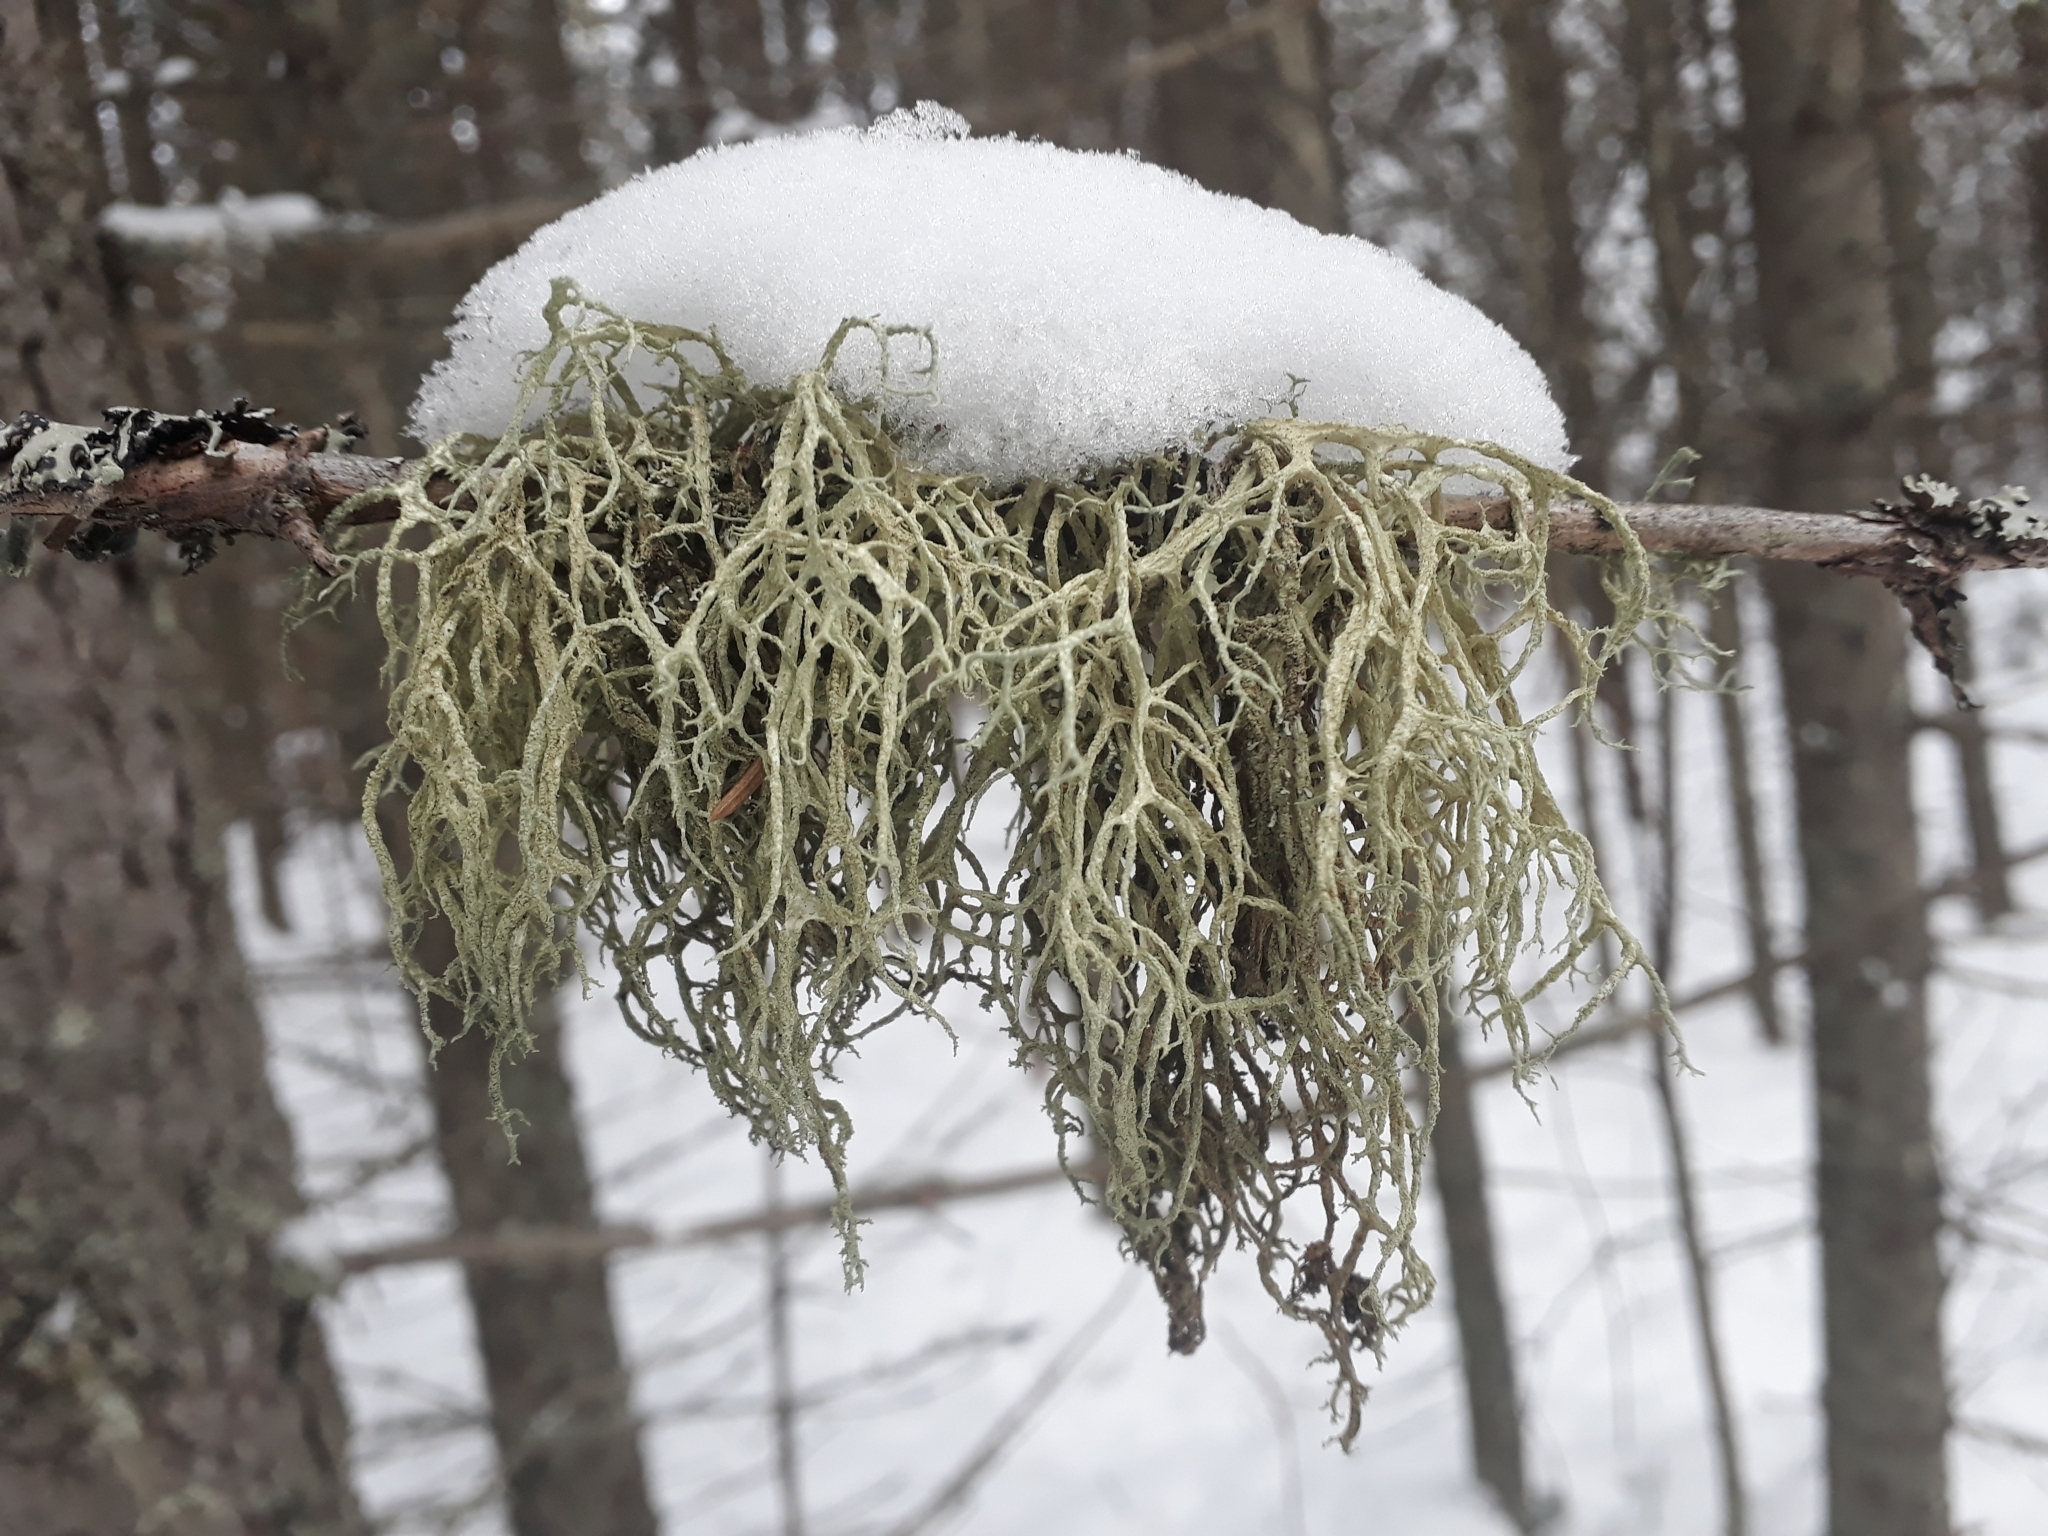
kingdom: Fungi
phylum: Ascomycota
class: Lecanoromycetes
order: Lecanorales
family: Parmeliaceae
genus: Evernia
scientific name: Evernia mesomorpha
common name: Boreal oak moss lichen
